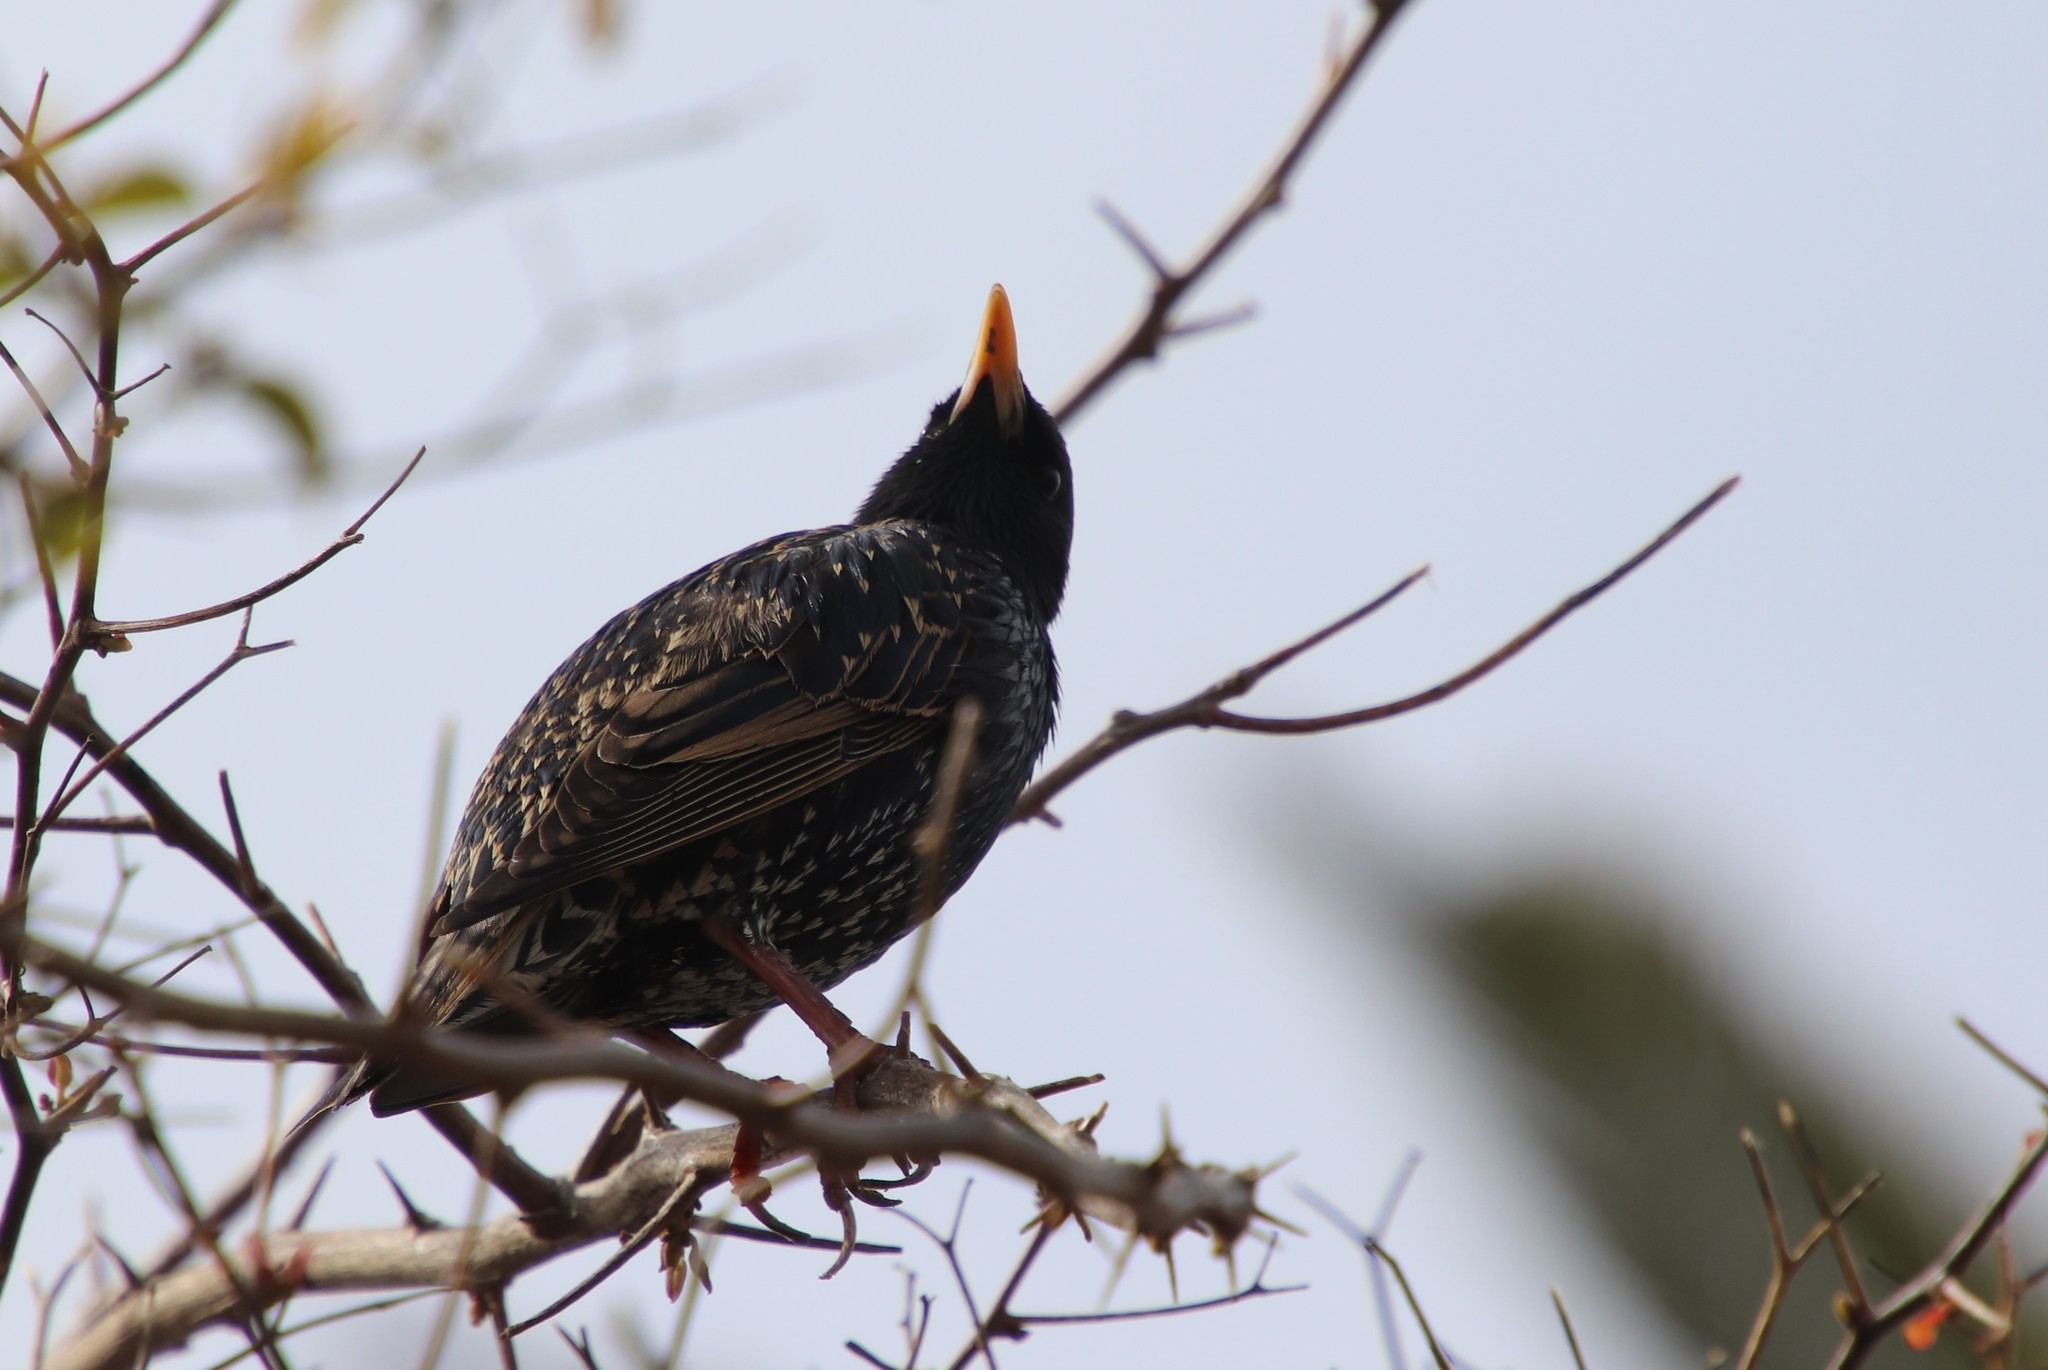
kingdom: Animalia
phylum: Chordata
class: Aves
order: Passeriformes
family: Sturnidae
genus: Sturnus
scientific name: Sturnus vulgaris
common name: Common starling
